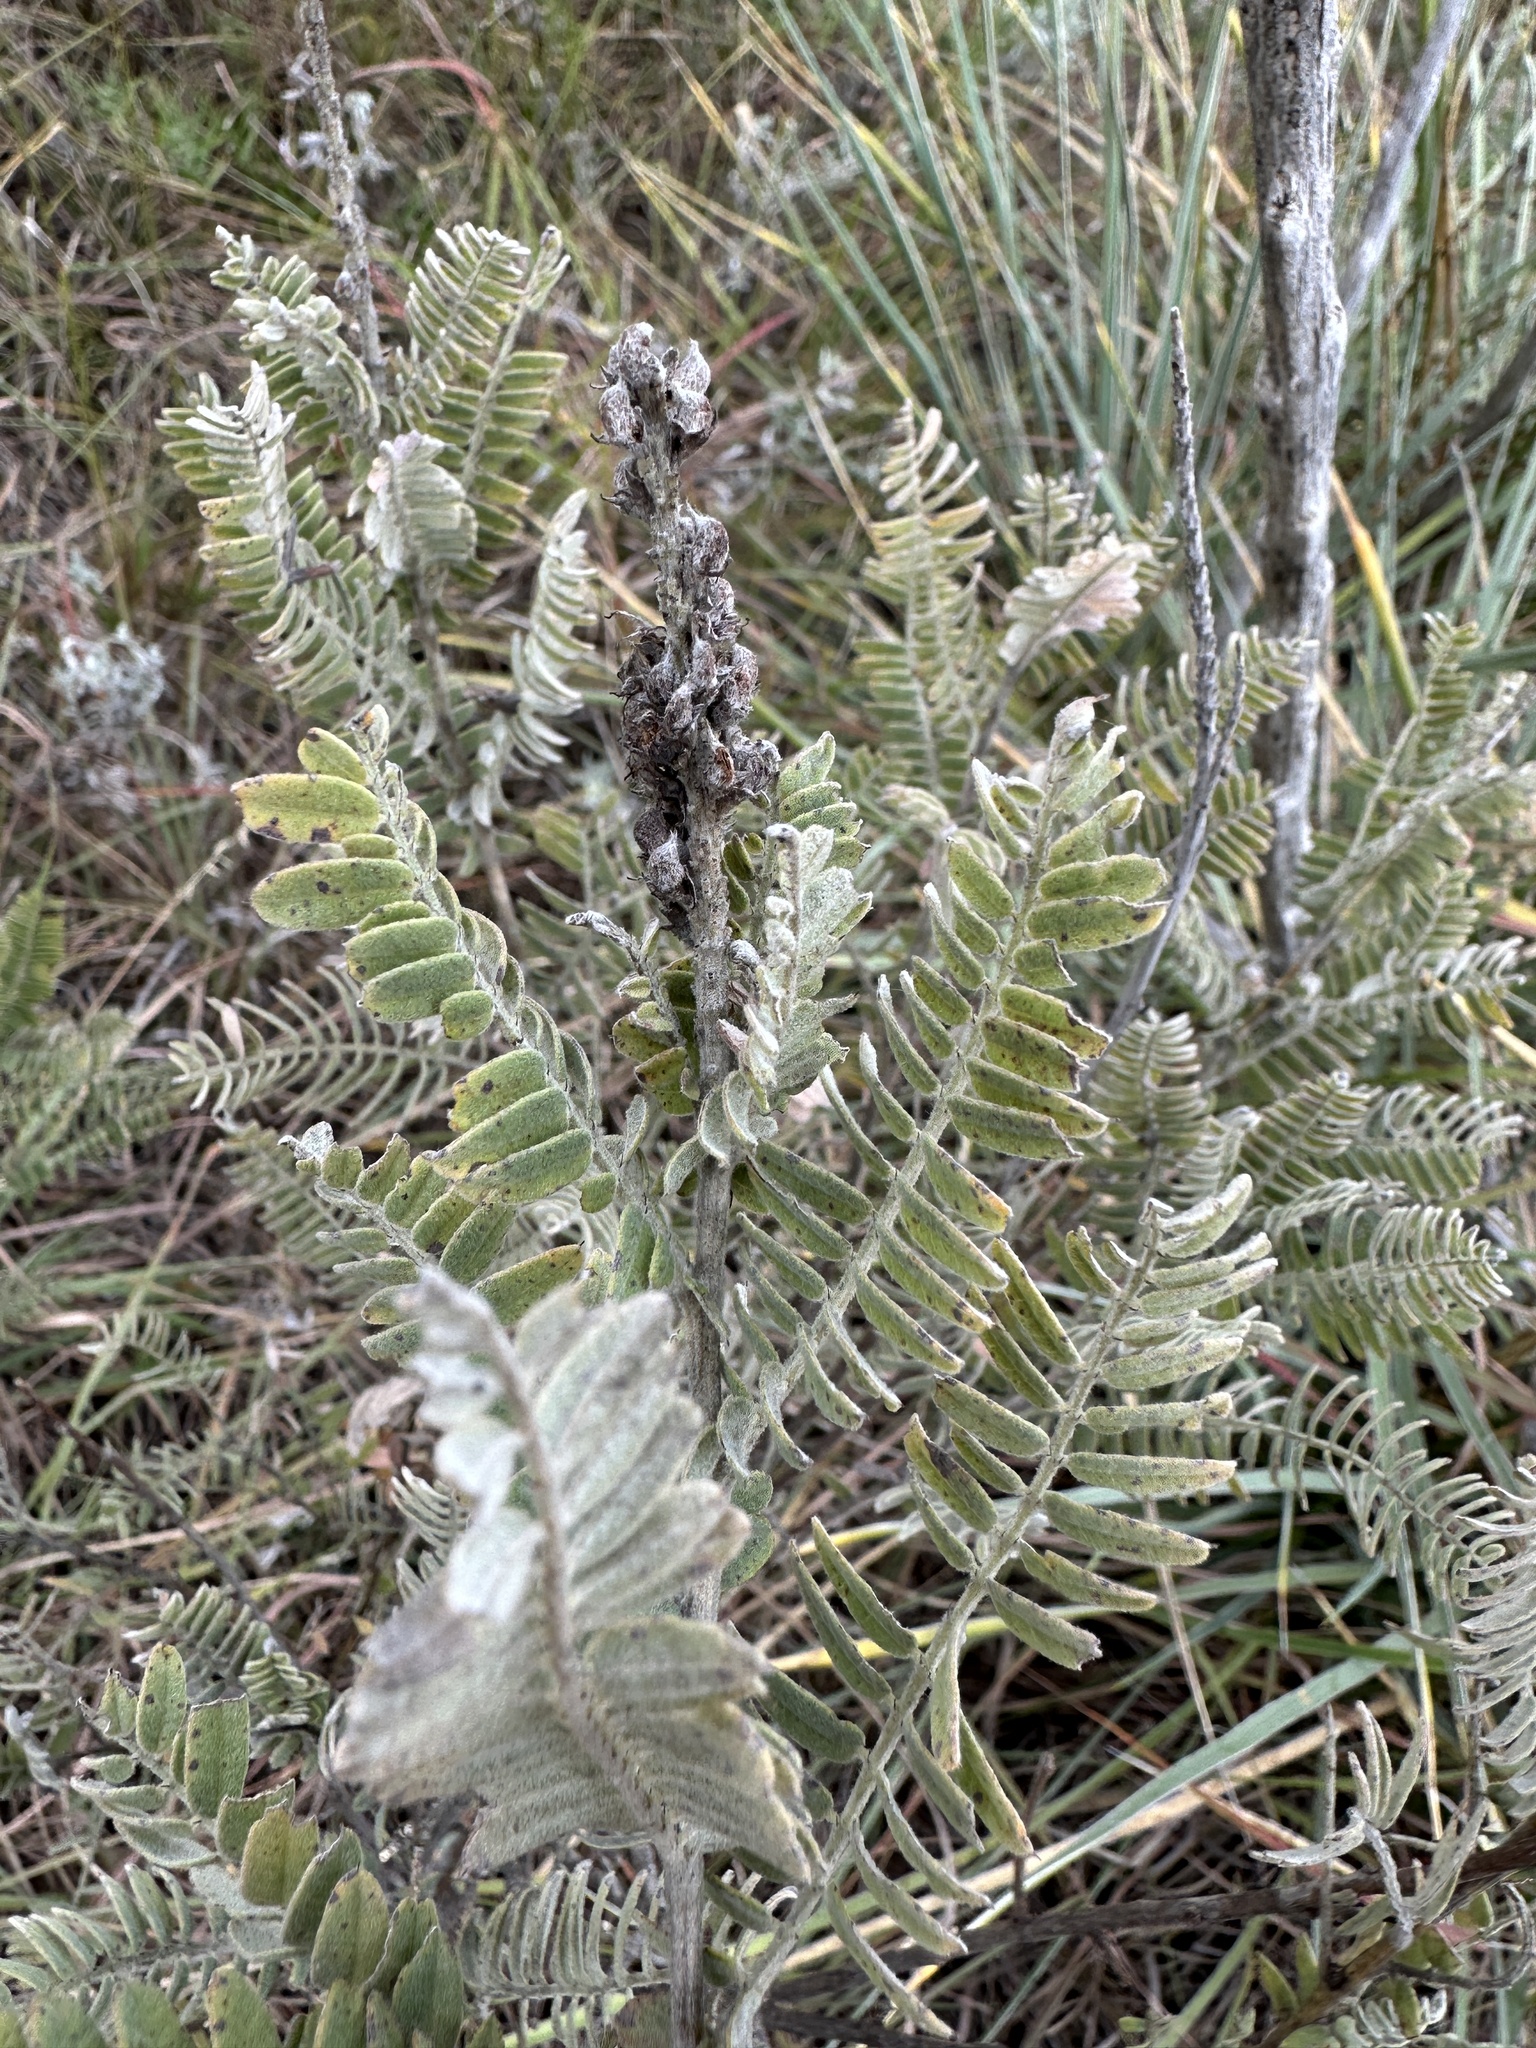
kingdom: Plantae
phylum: Tracheophyta
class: Magnoliopsida
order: Fabales
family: Fabaceae
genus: Amorpha
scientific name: Amorpha canescens
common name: Leadplant
